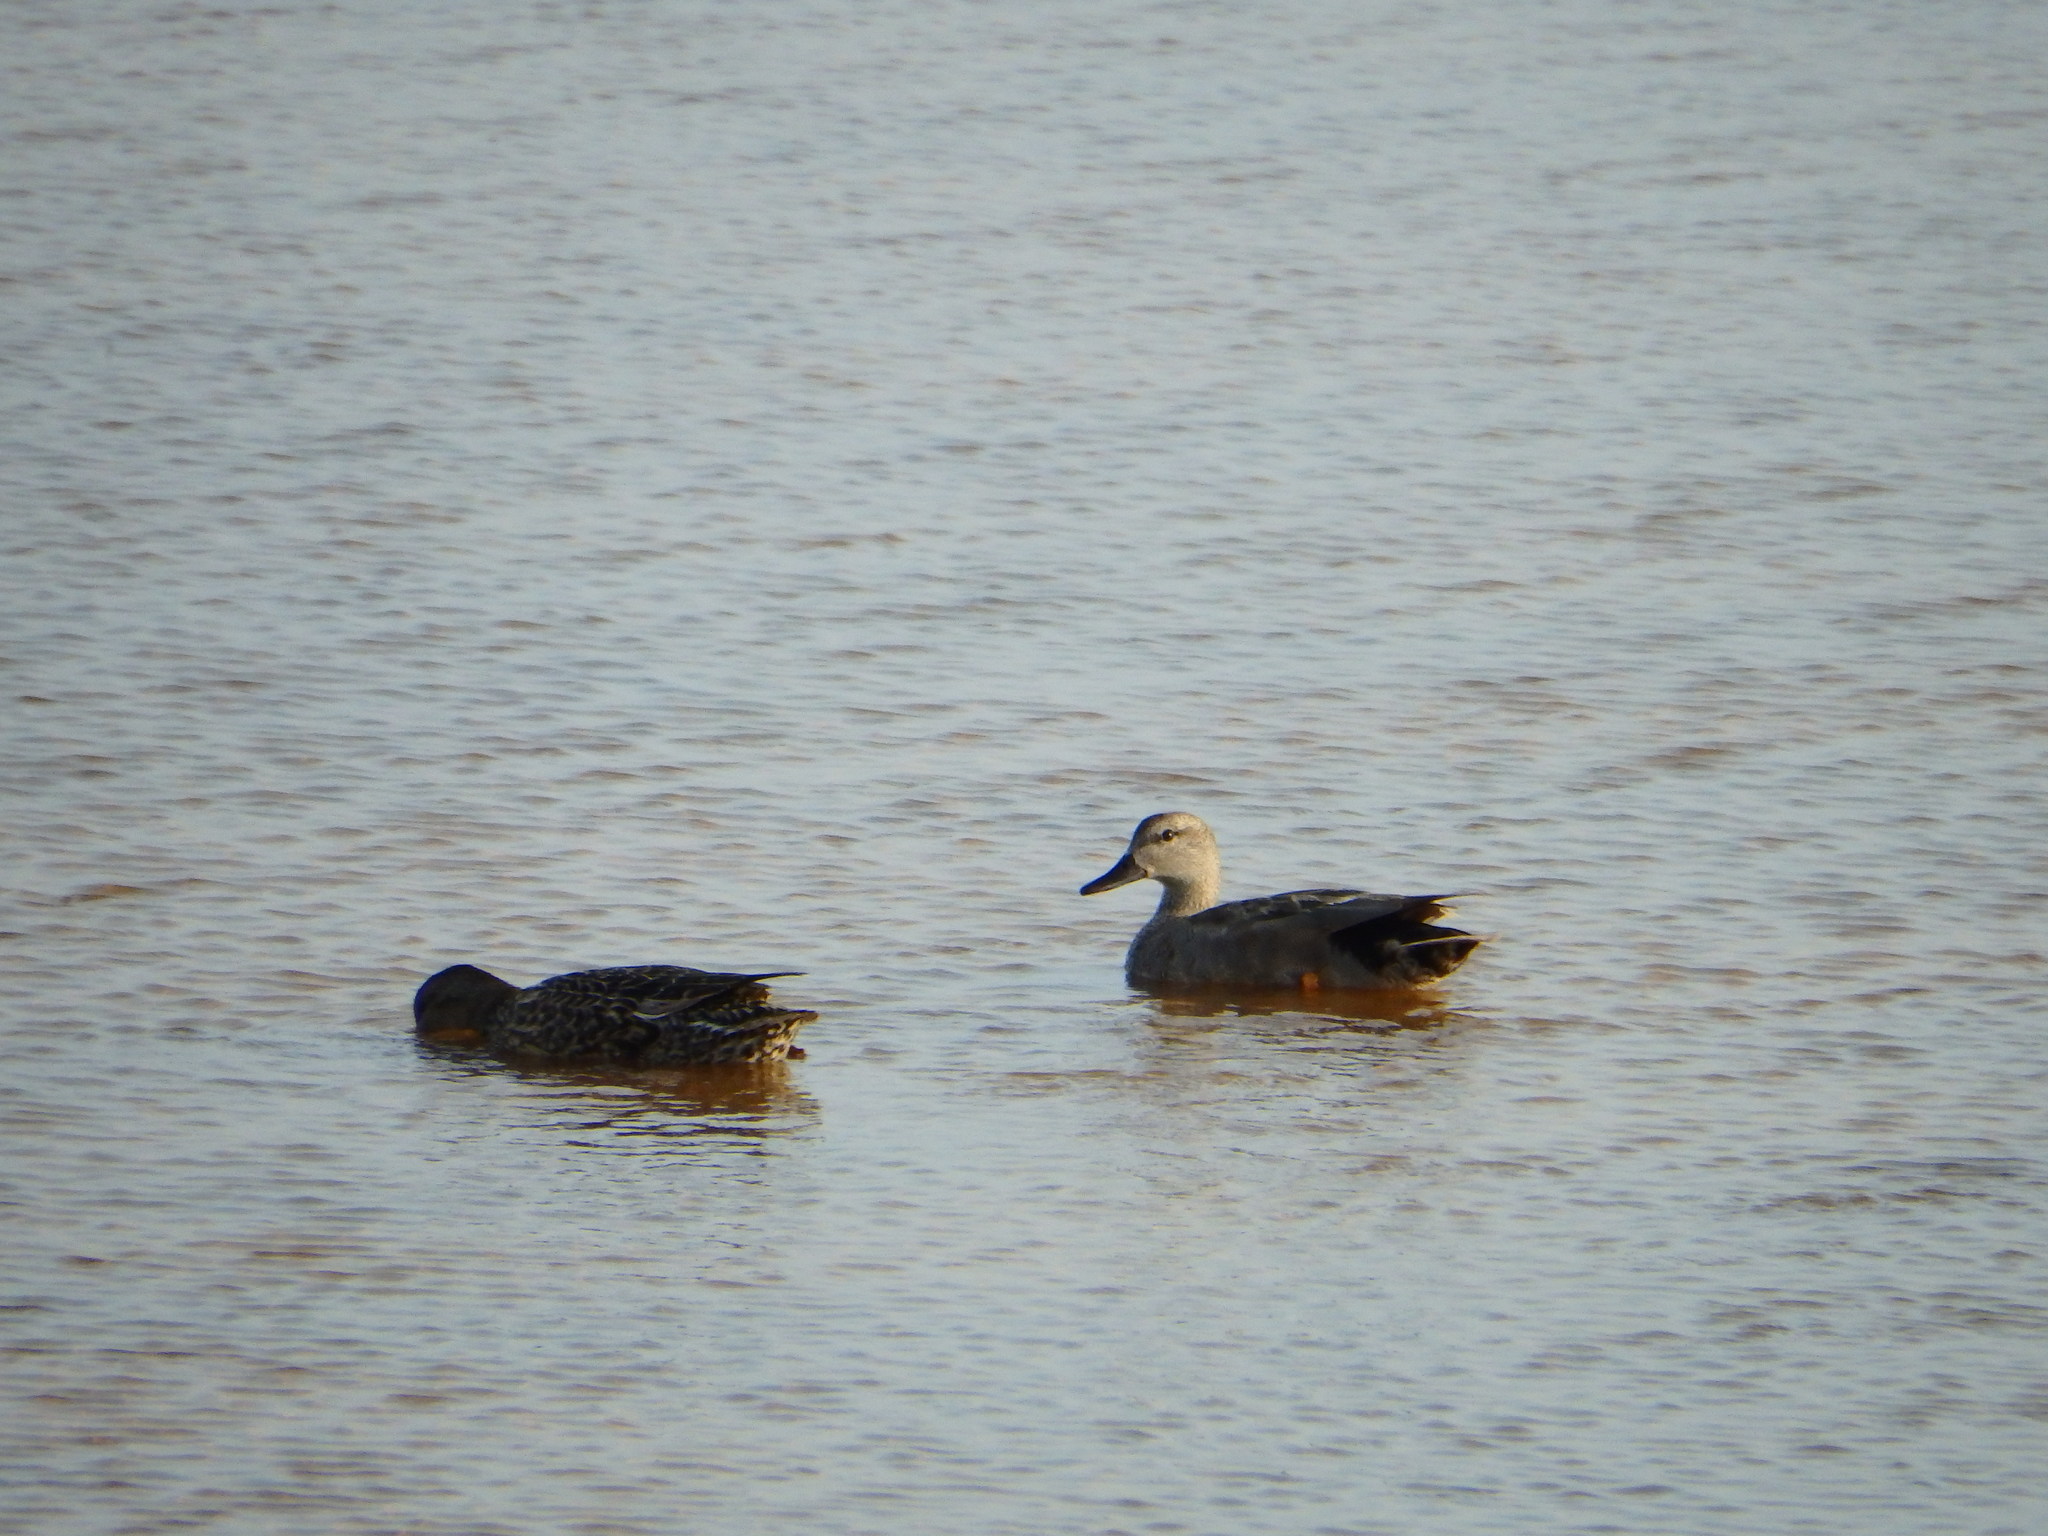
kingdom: Animalia
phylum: Chordata
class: Aves
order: Anseriformes
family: Anatidae
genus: Mareca
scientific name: Mareca strepera
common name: Gadwall
